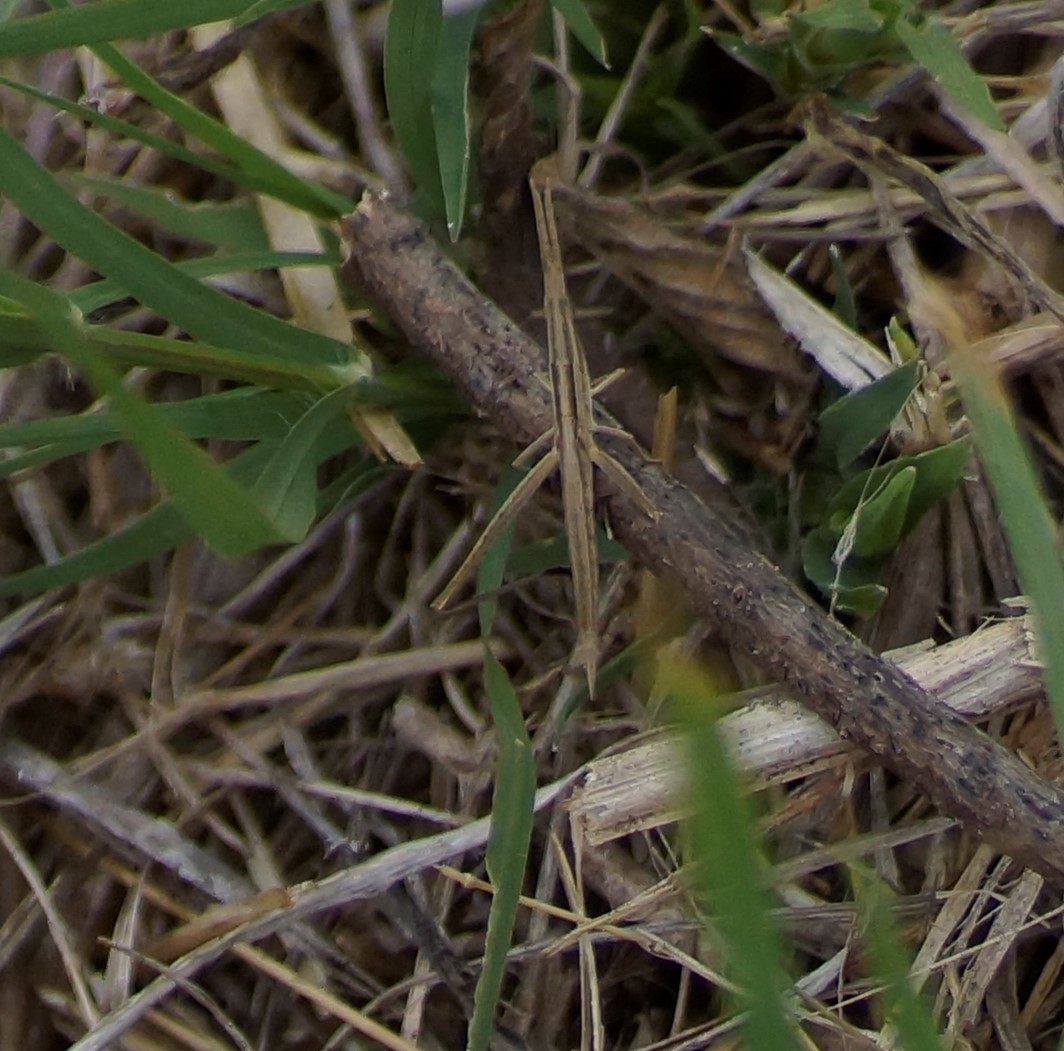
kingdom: Animalia
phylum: Arthropoda
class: Insecta
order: Orthoptera
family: Acrididae
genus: Acrida
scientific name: Acrida conica
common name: Giant green slantface
